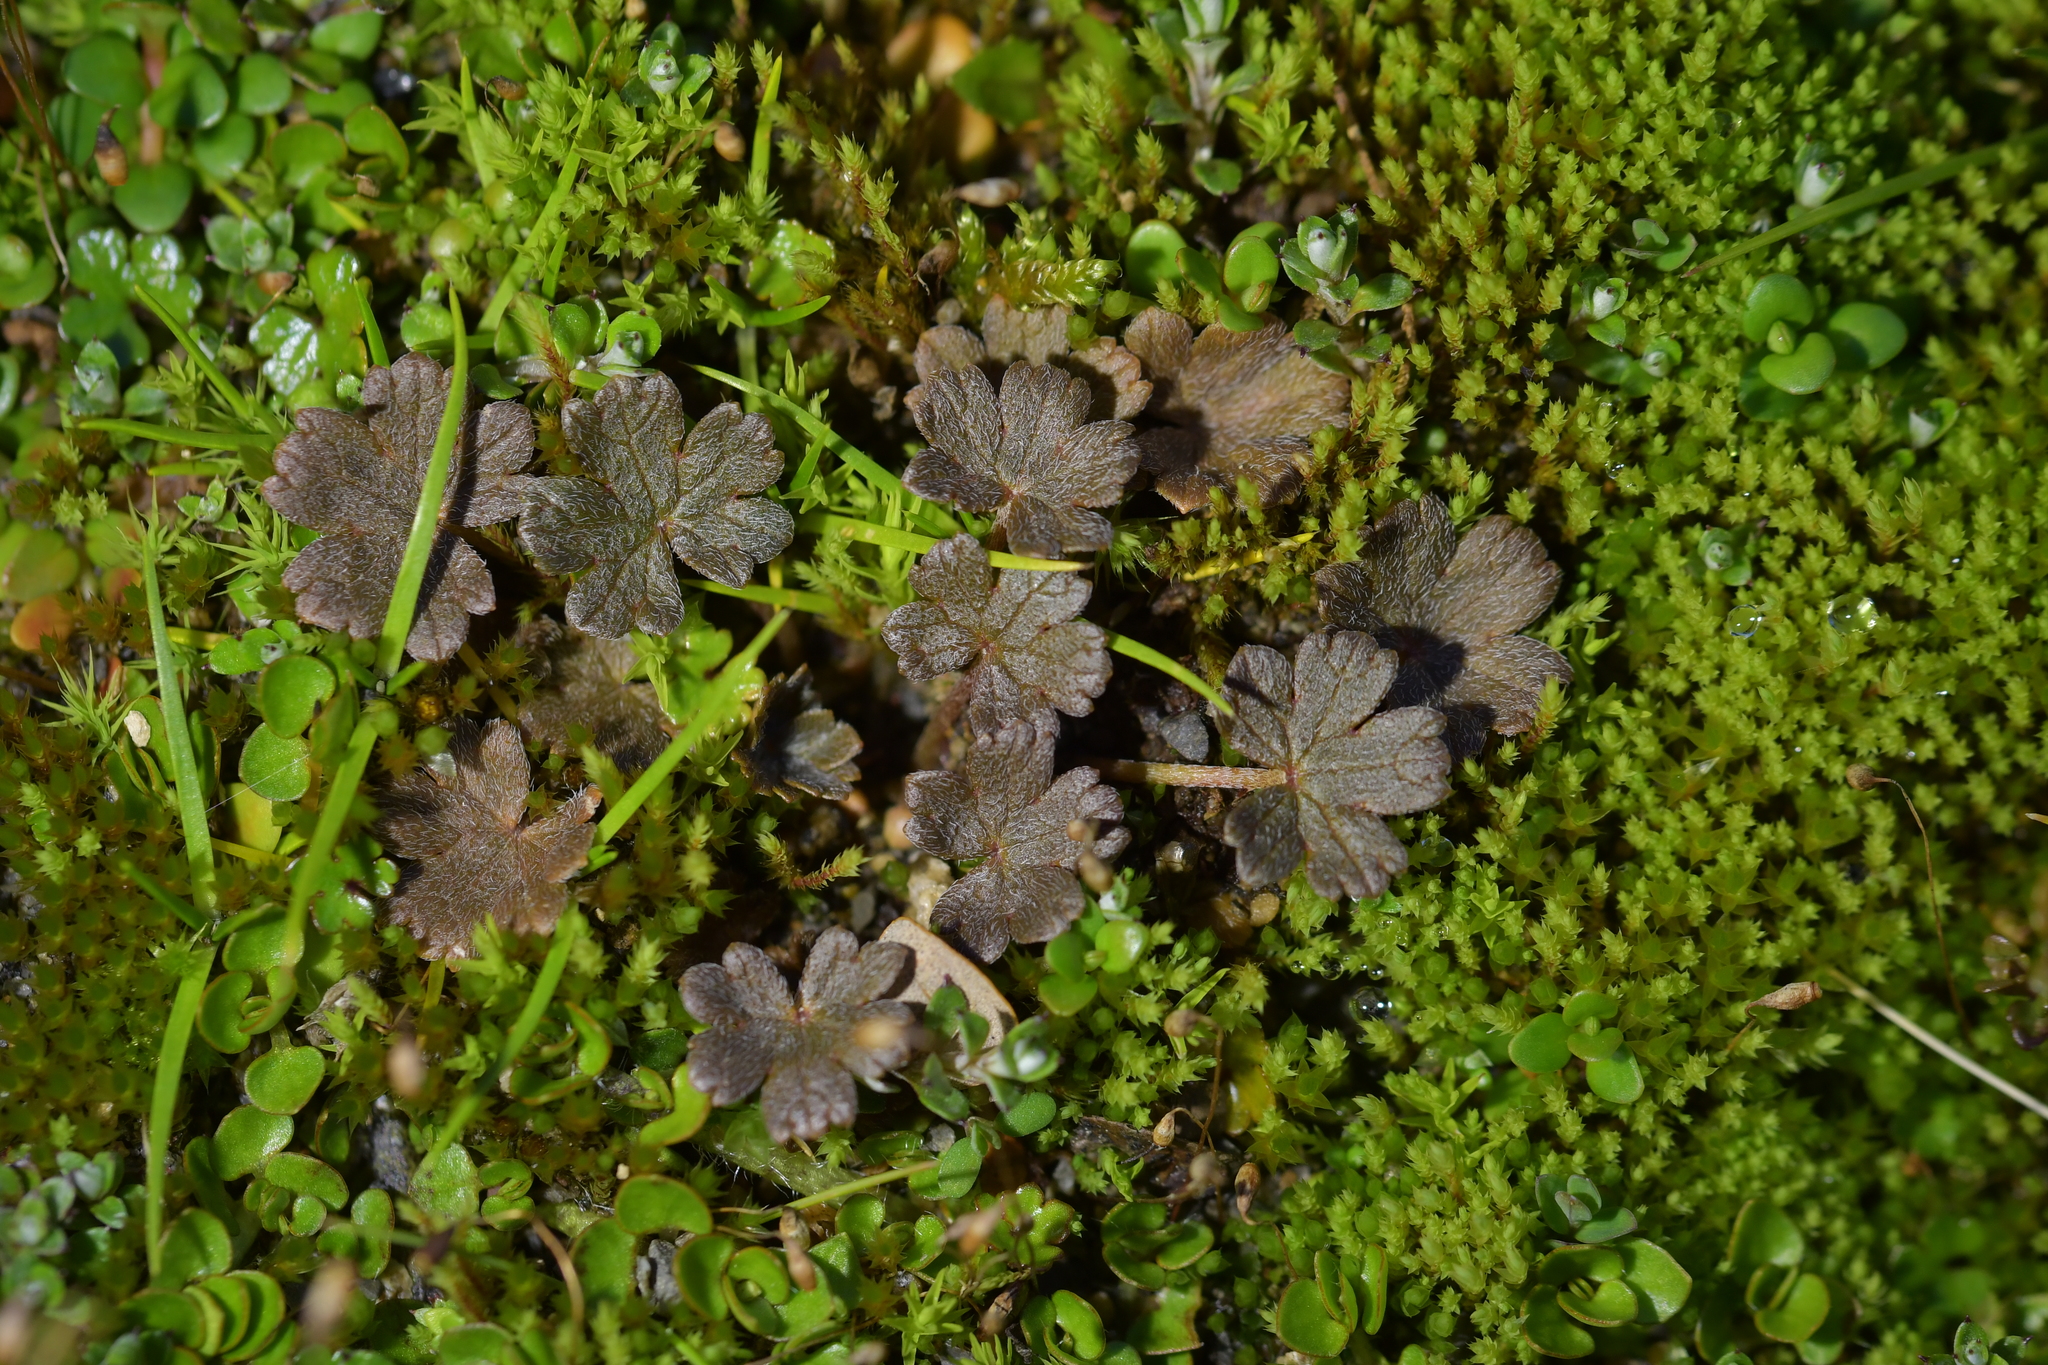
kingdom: Plantae
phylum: Tracheophyta
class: Magnoliopsida
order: Geraniales
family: Geraniaceae
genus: Geranium
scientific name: Geranium brevicaule
